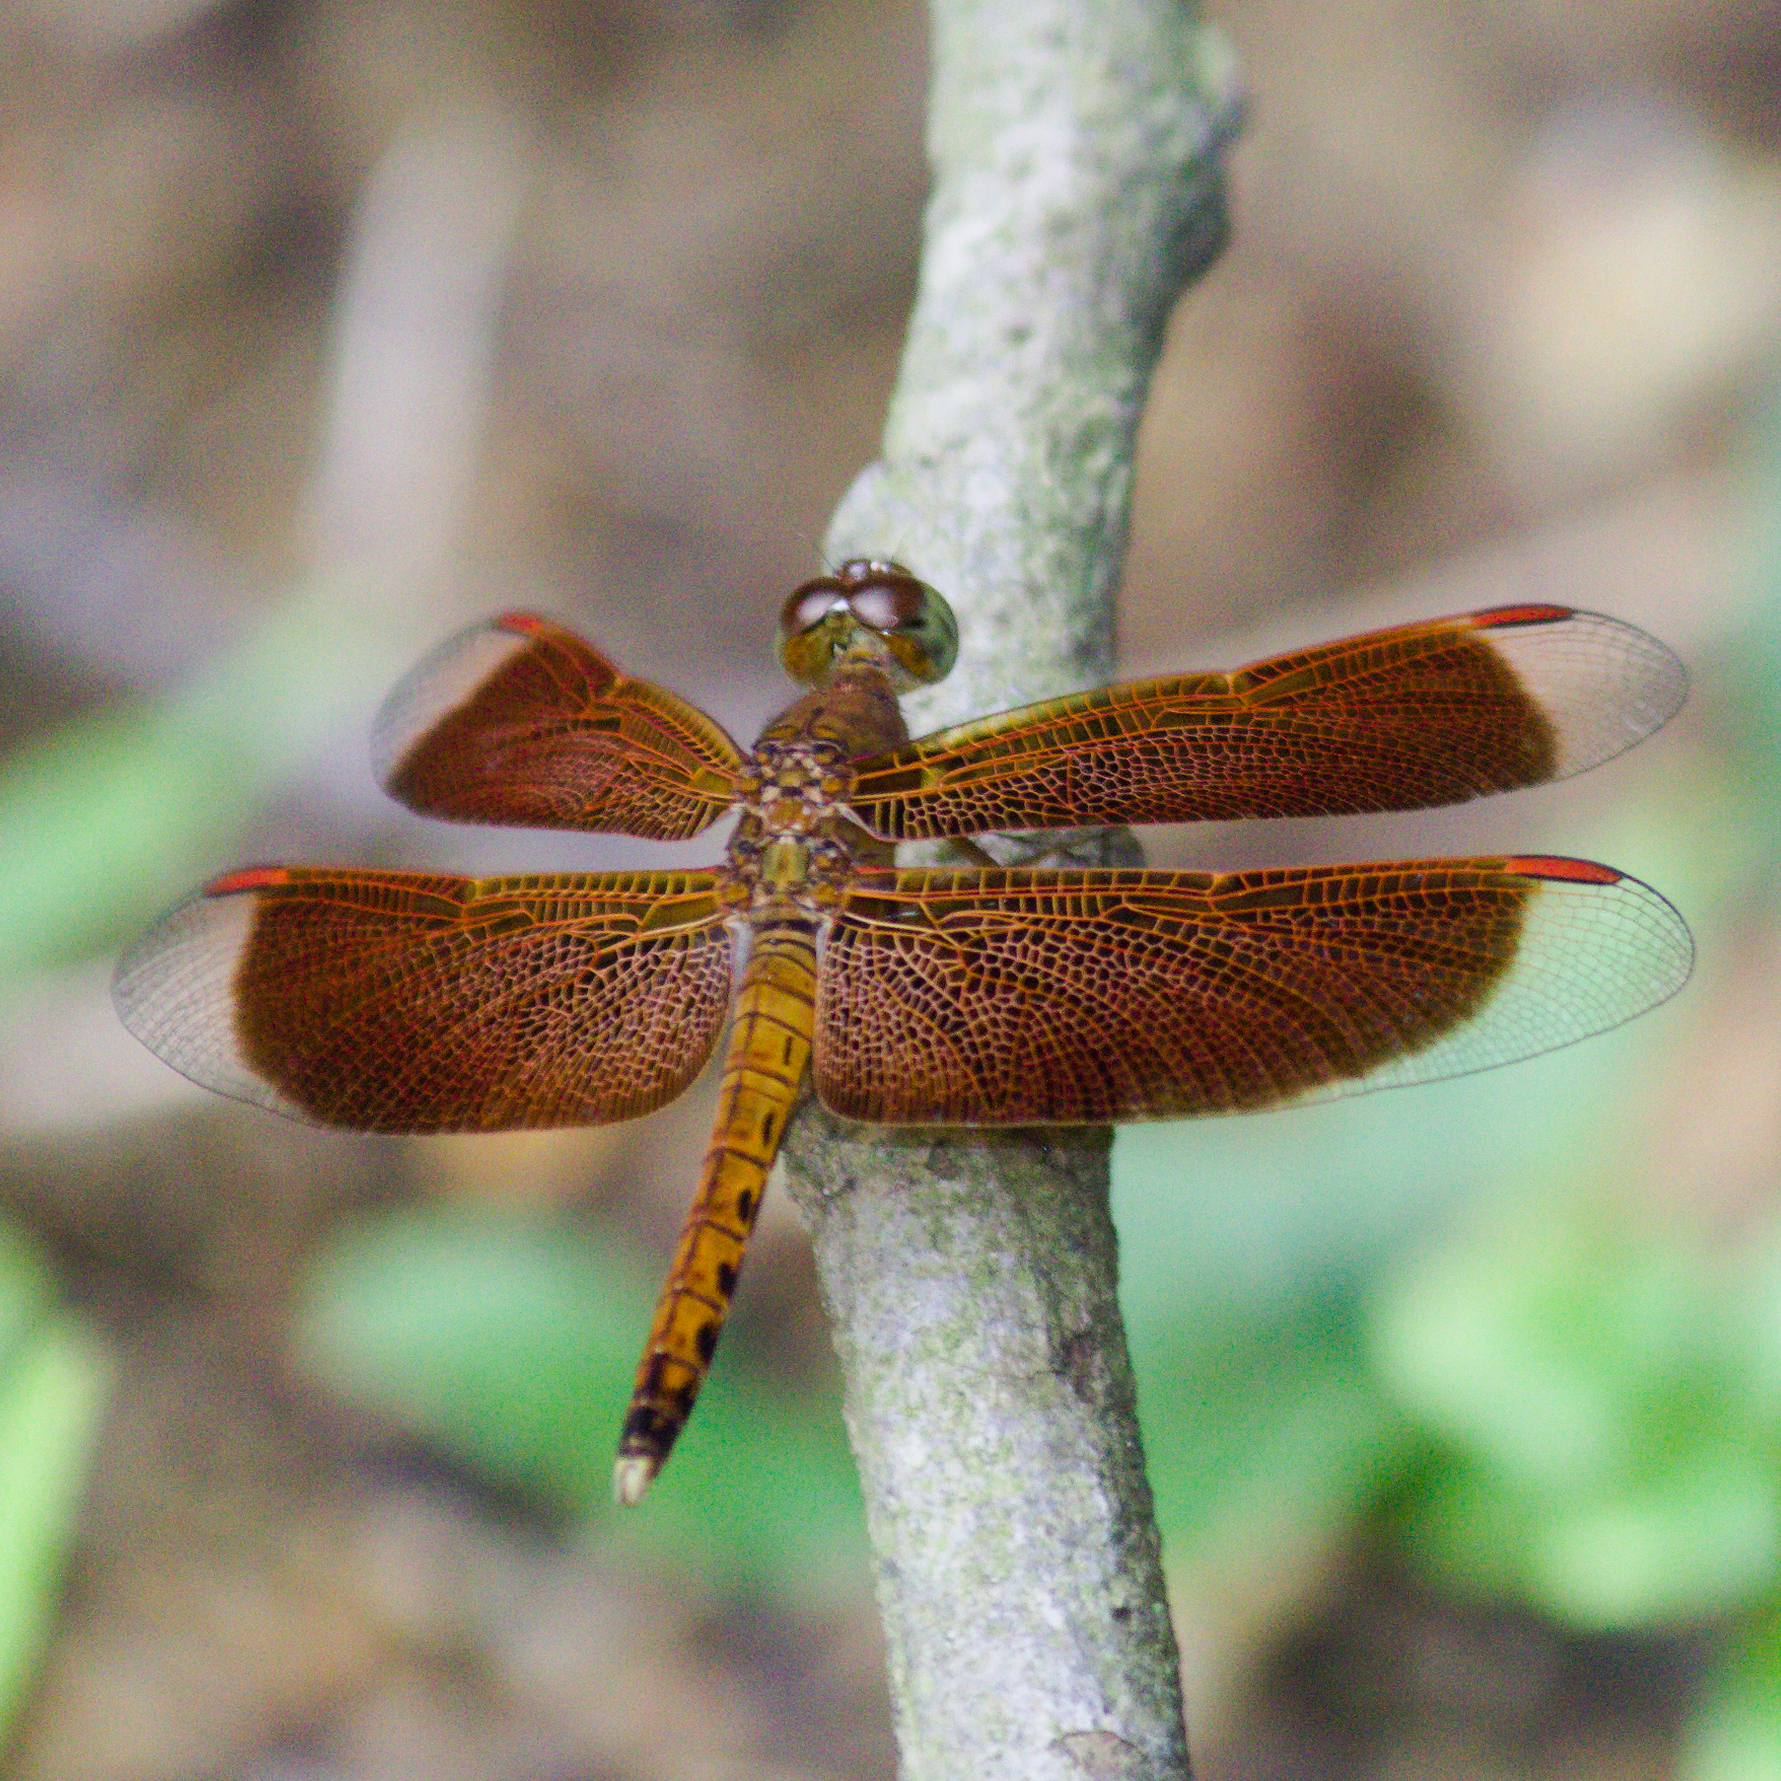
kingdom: Animalia
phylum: Arthropoda
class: Insecta
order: Odonata
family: Libellulidae
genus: Neurothemis
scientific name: Neurothemis fluctuans
